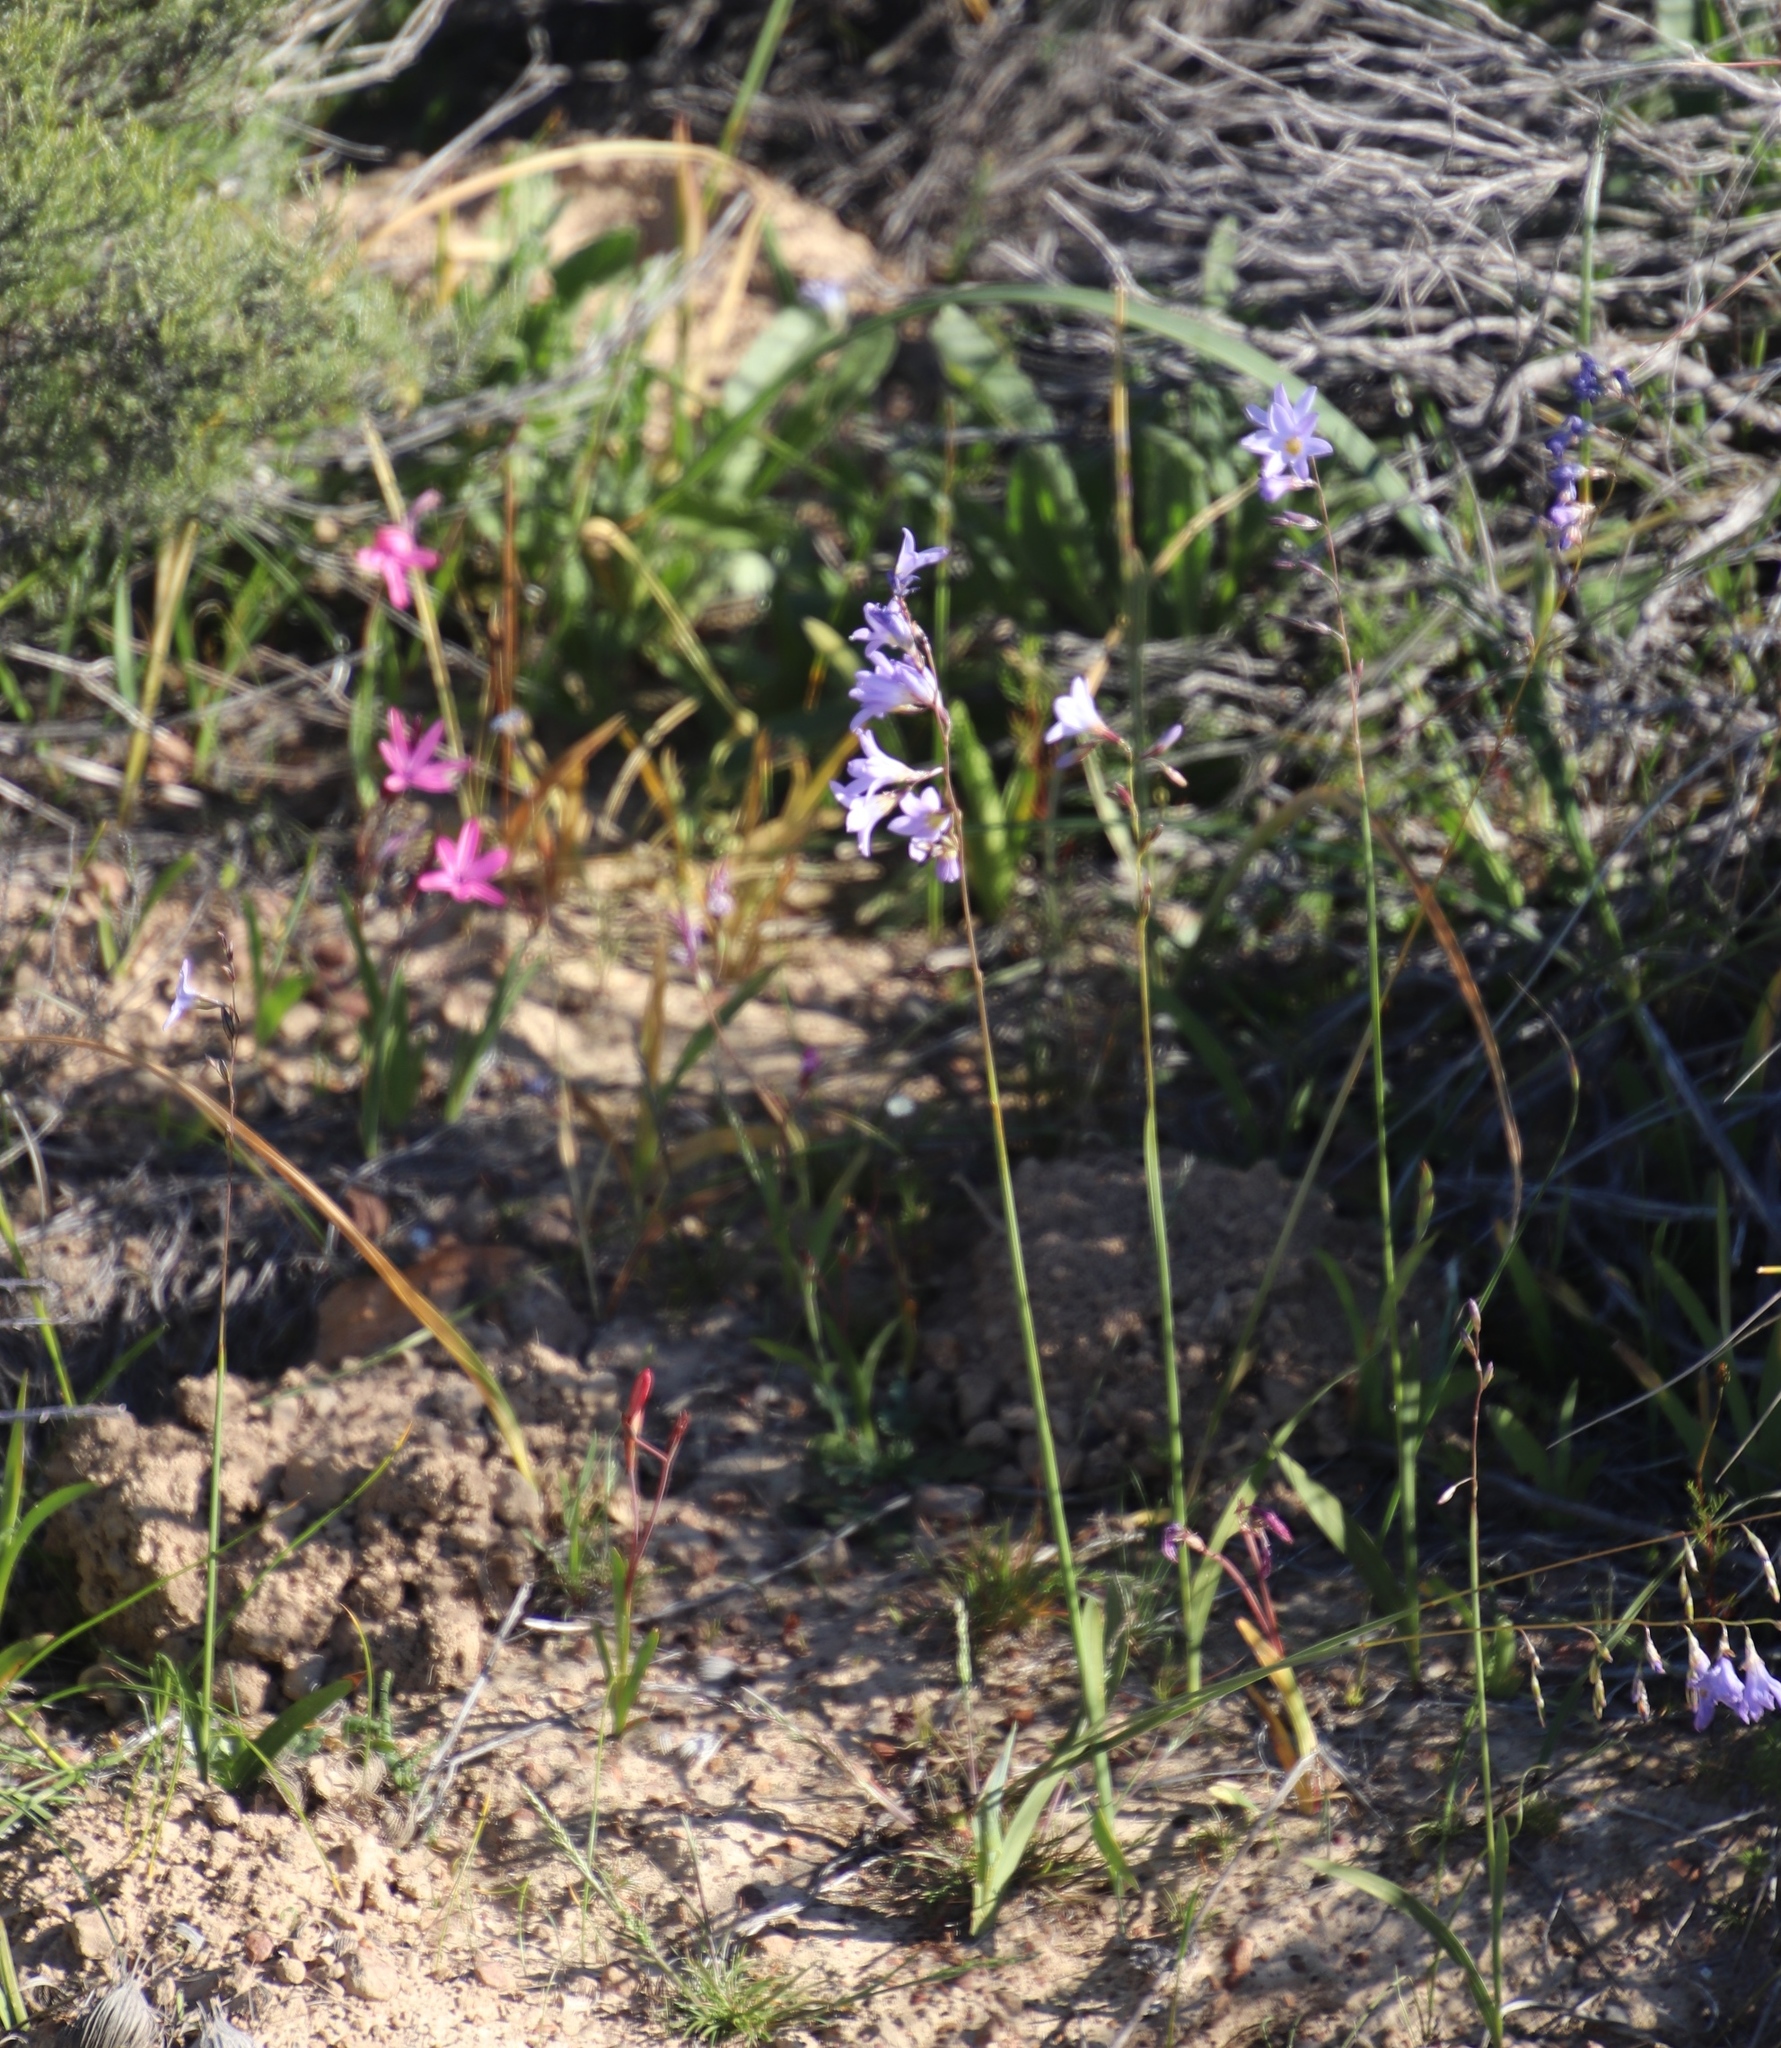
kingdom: Plantae
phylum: Tracheophyta
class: Liliopsida
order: Asparagales
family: Iridaceae
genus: Ixia
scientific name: Ixia rapunculoides
